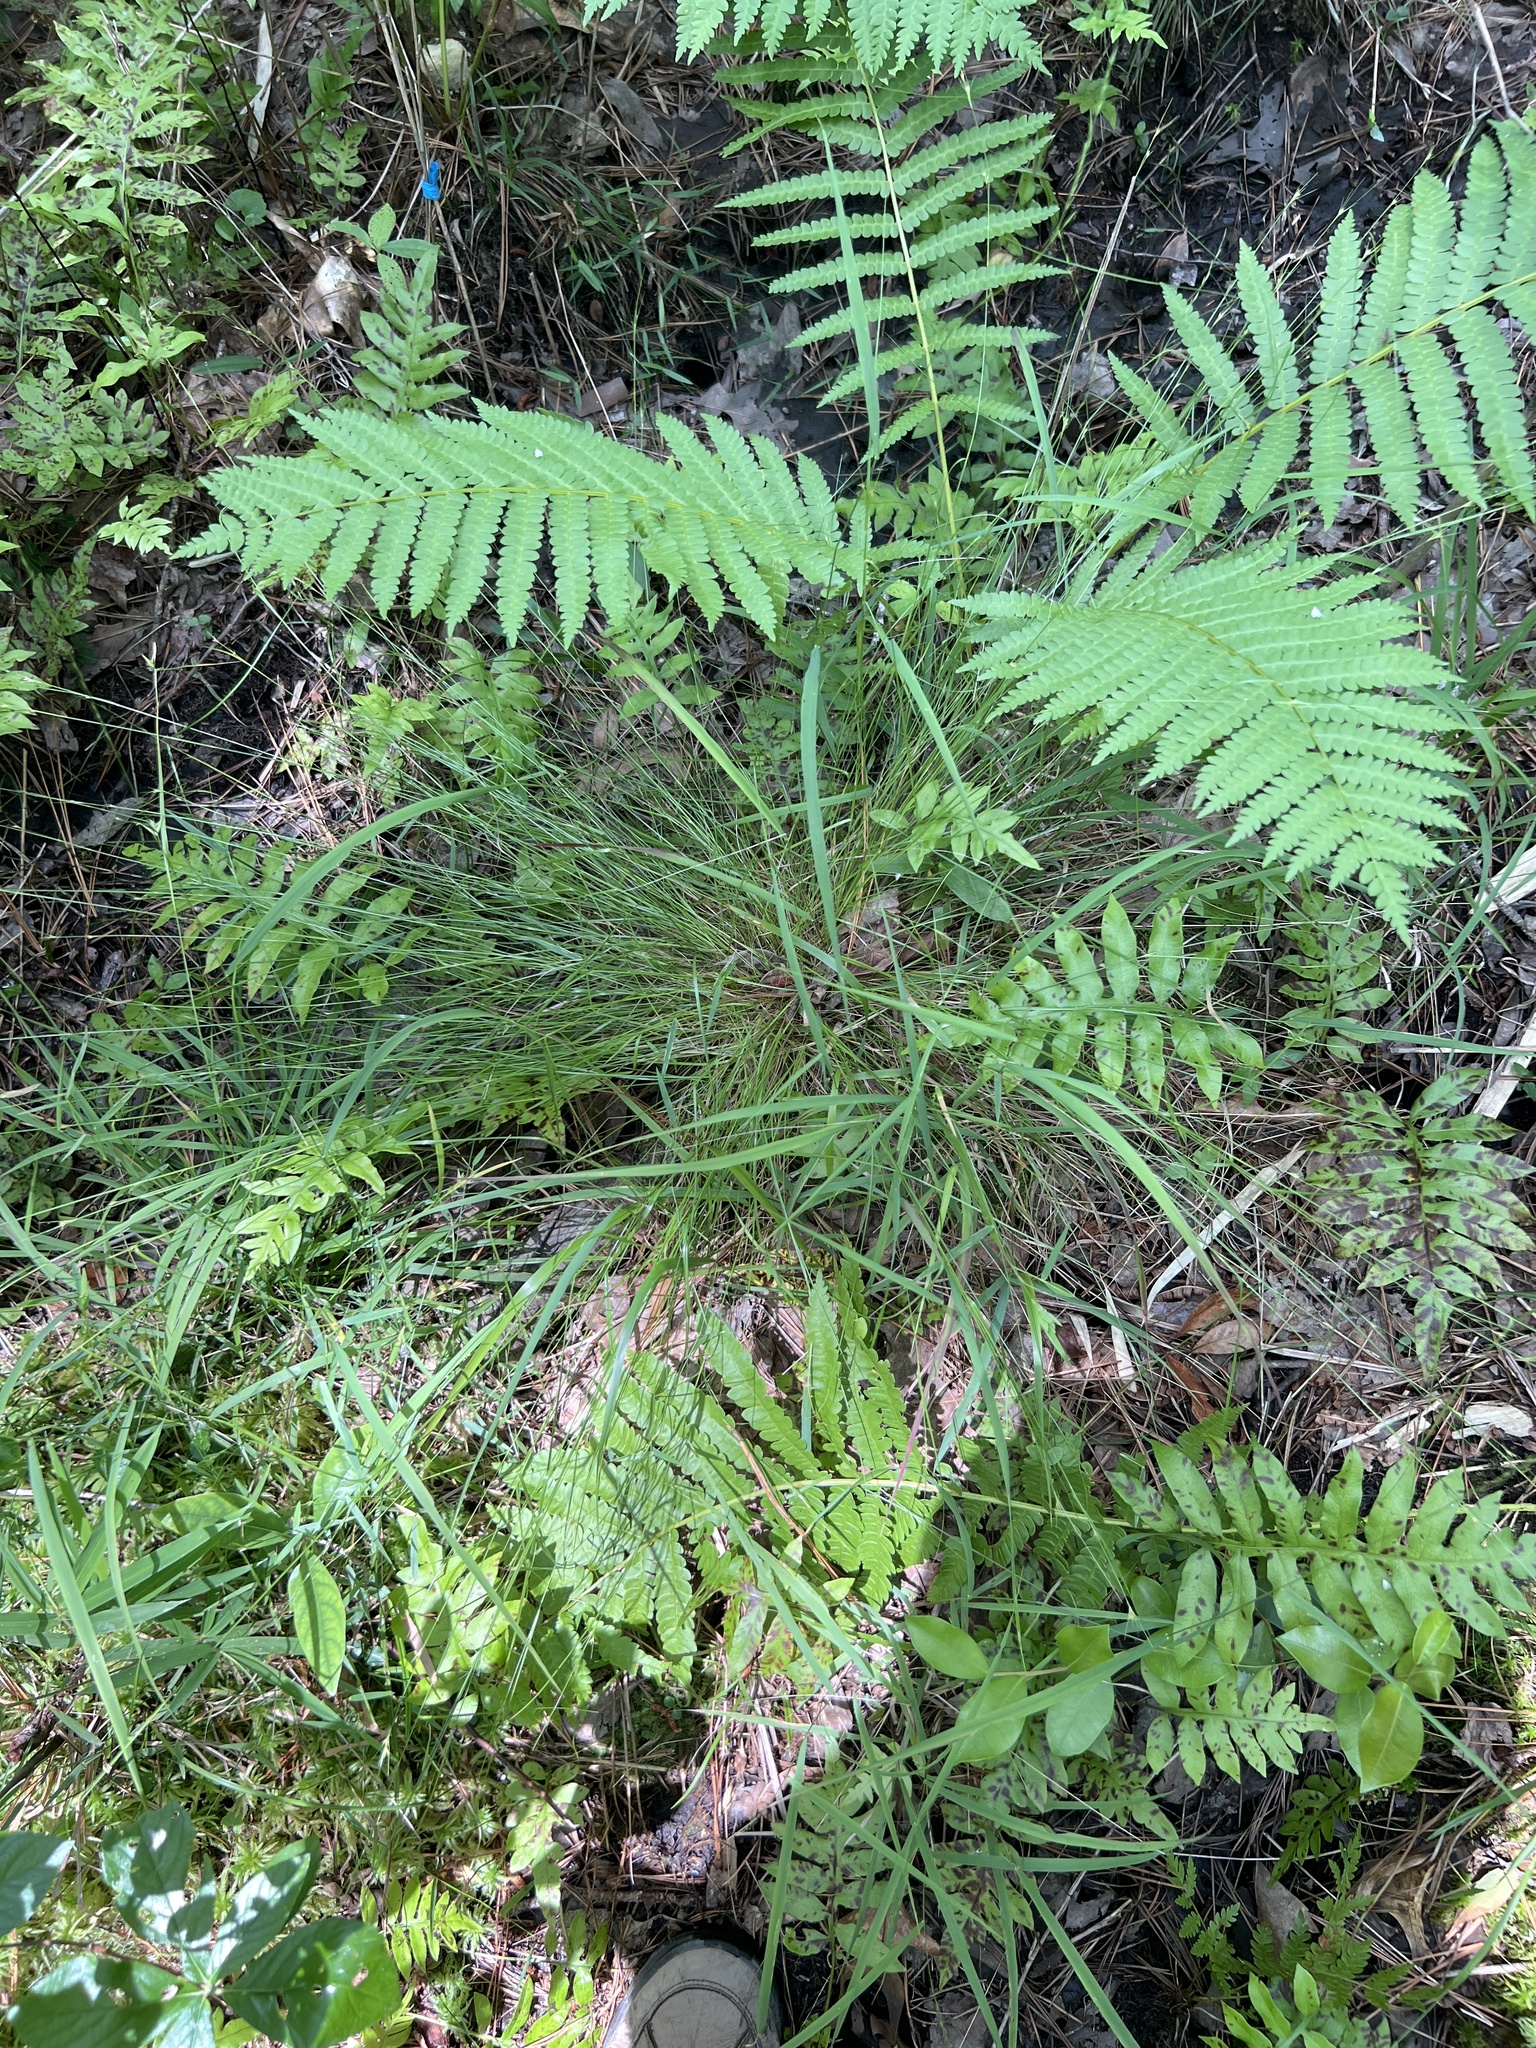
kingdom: Plantae
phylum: Tracheophyta
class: Liliopsida
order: Poales
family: Cyperaceae
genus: Rhynchospora
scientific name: Rhynchospora leptocarpa
